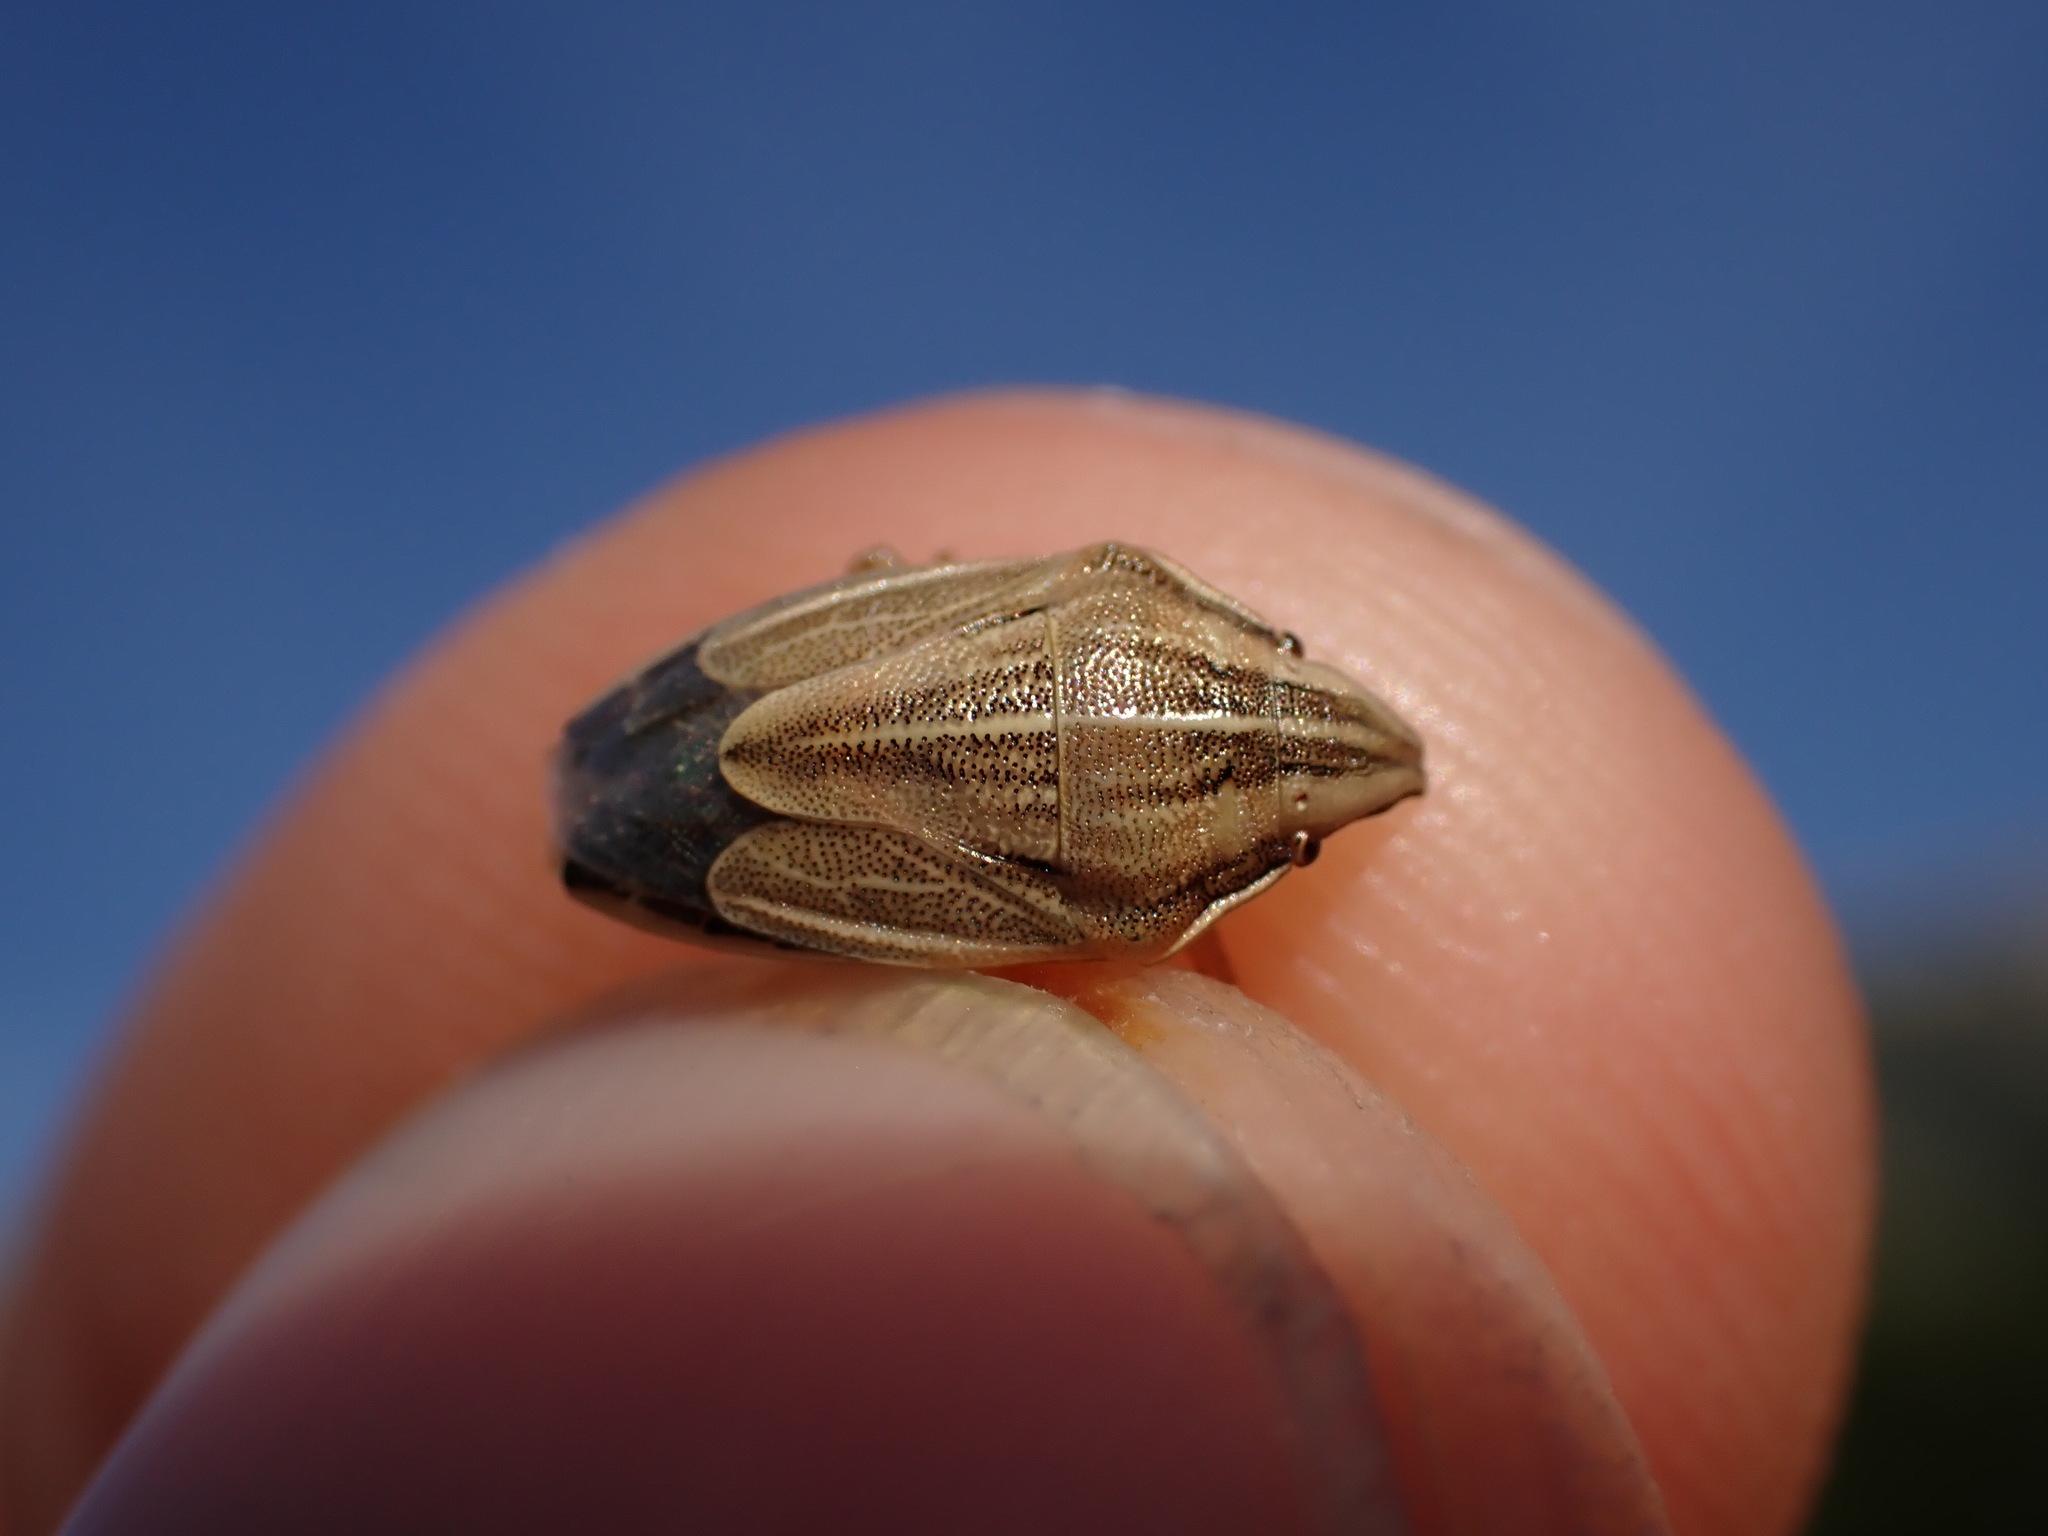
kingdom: Animalia
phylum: Arthropoda
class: Insecta
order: Hemiptera
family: Pentatomidae
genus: Aelia
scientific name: Aelia acuminata
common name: Bishop's mitre
